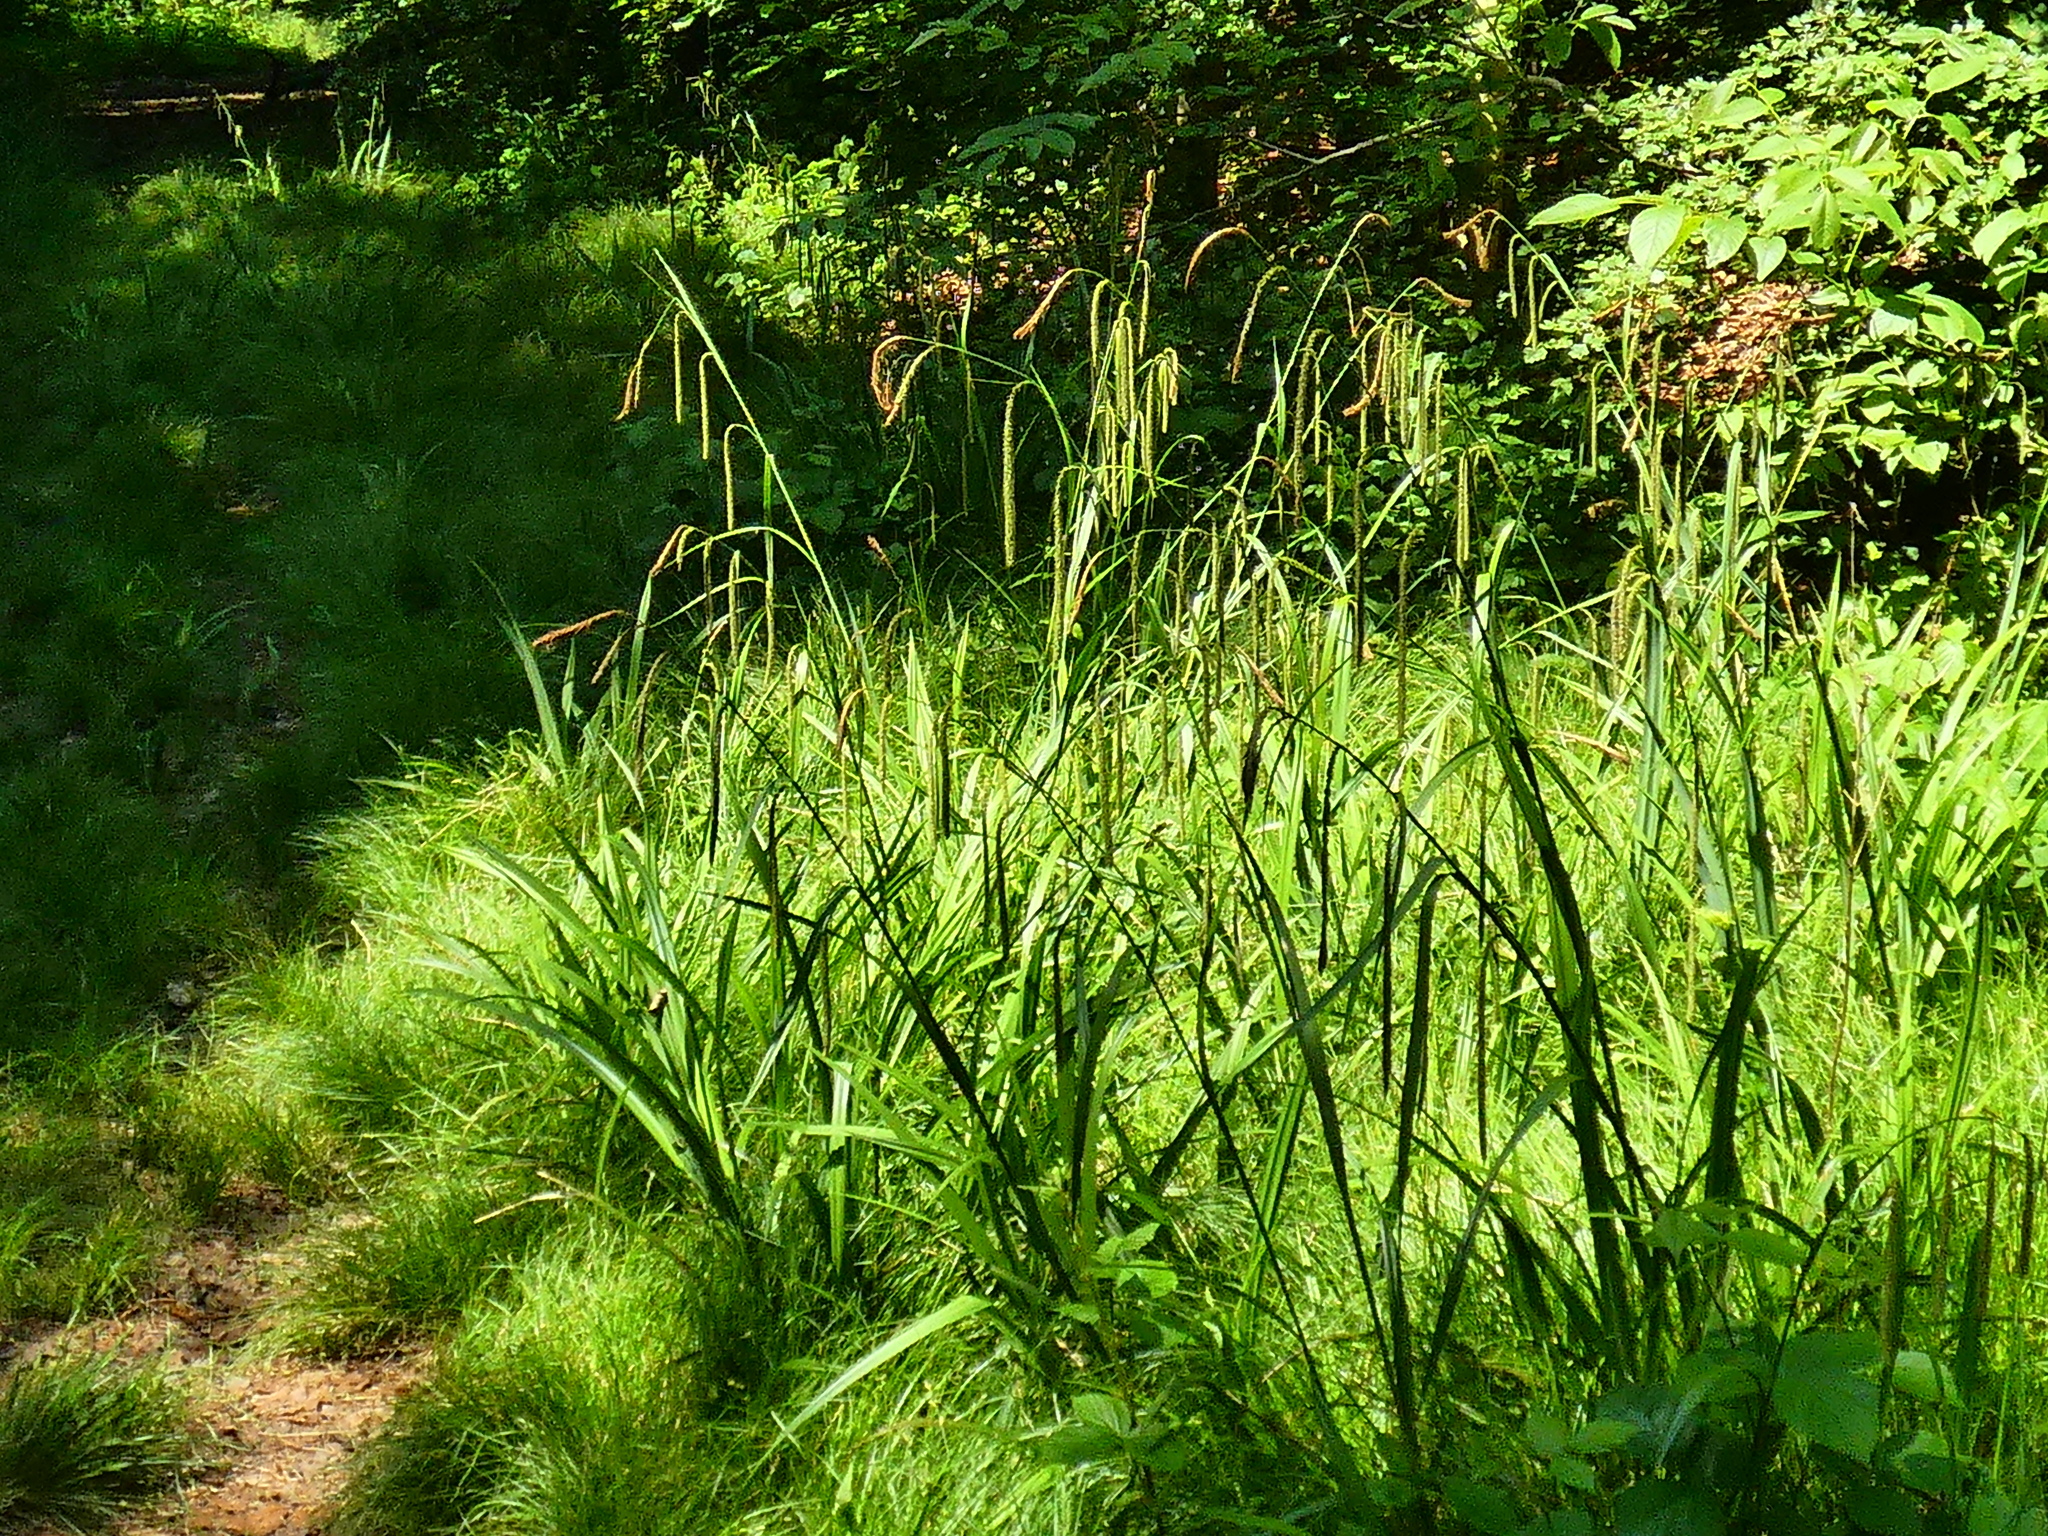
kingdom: Plantae
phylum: Tracheophyta
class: Liliopsida
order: Poales
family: Cyperaceae
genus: Carex
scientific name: Carex pendula
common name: Pendulous sedge
